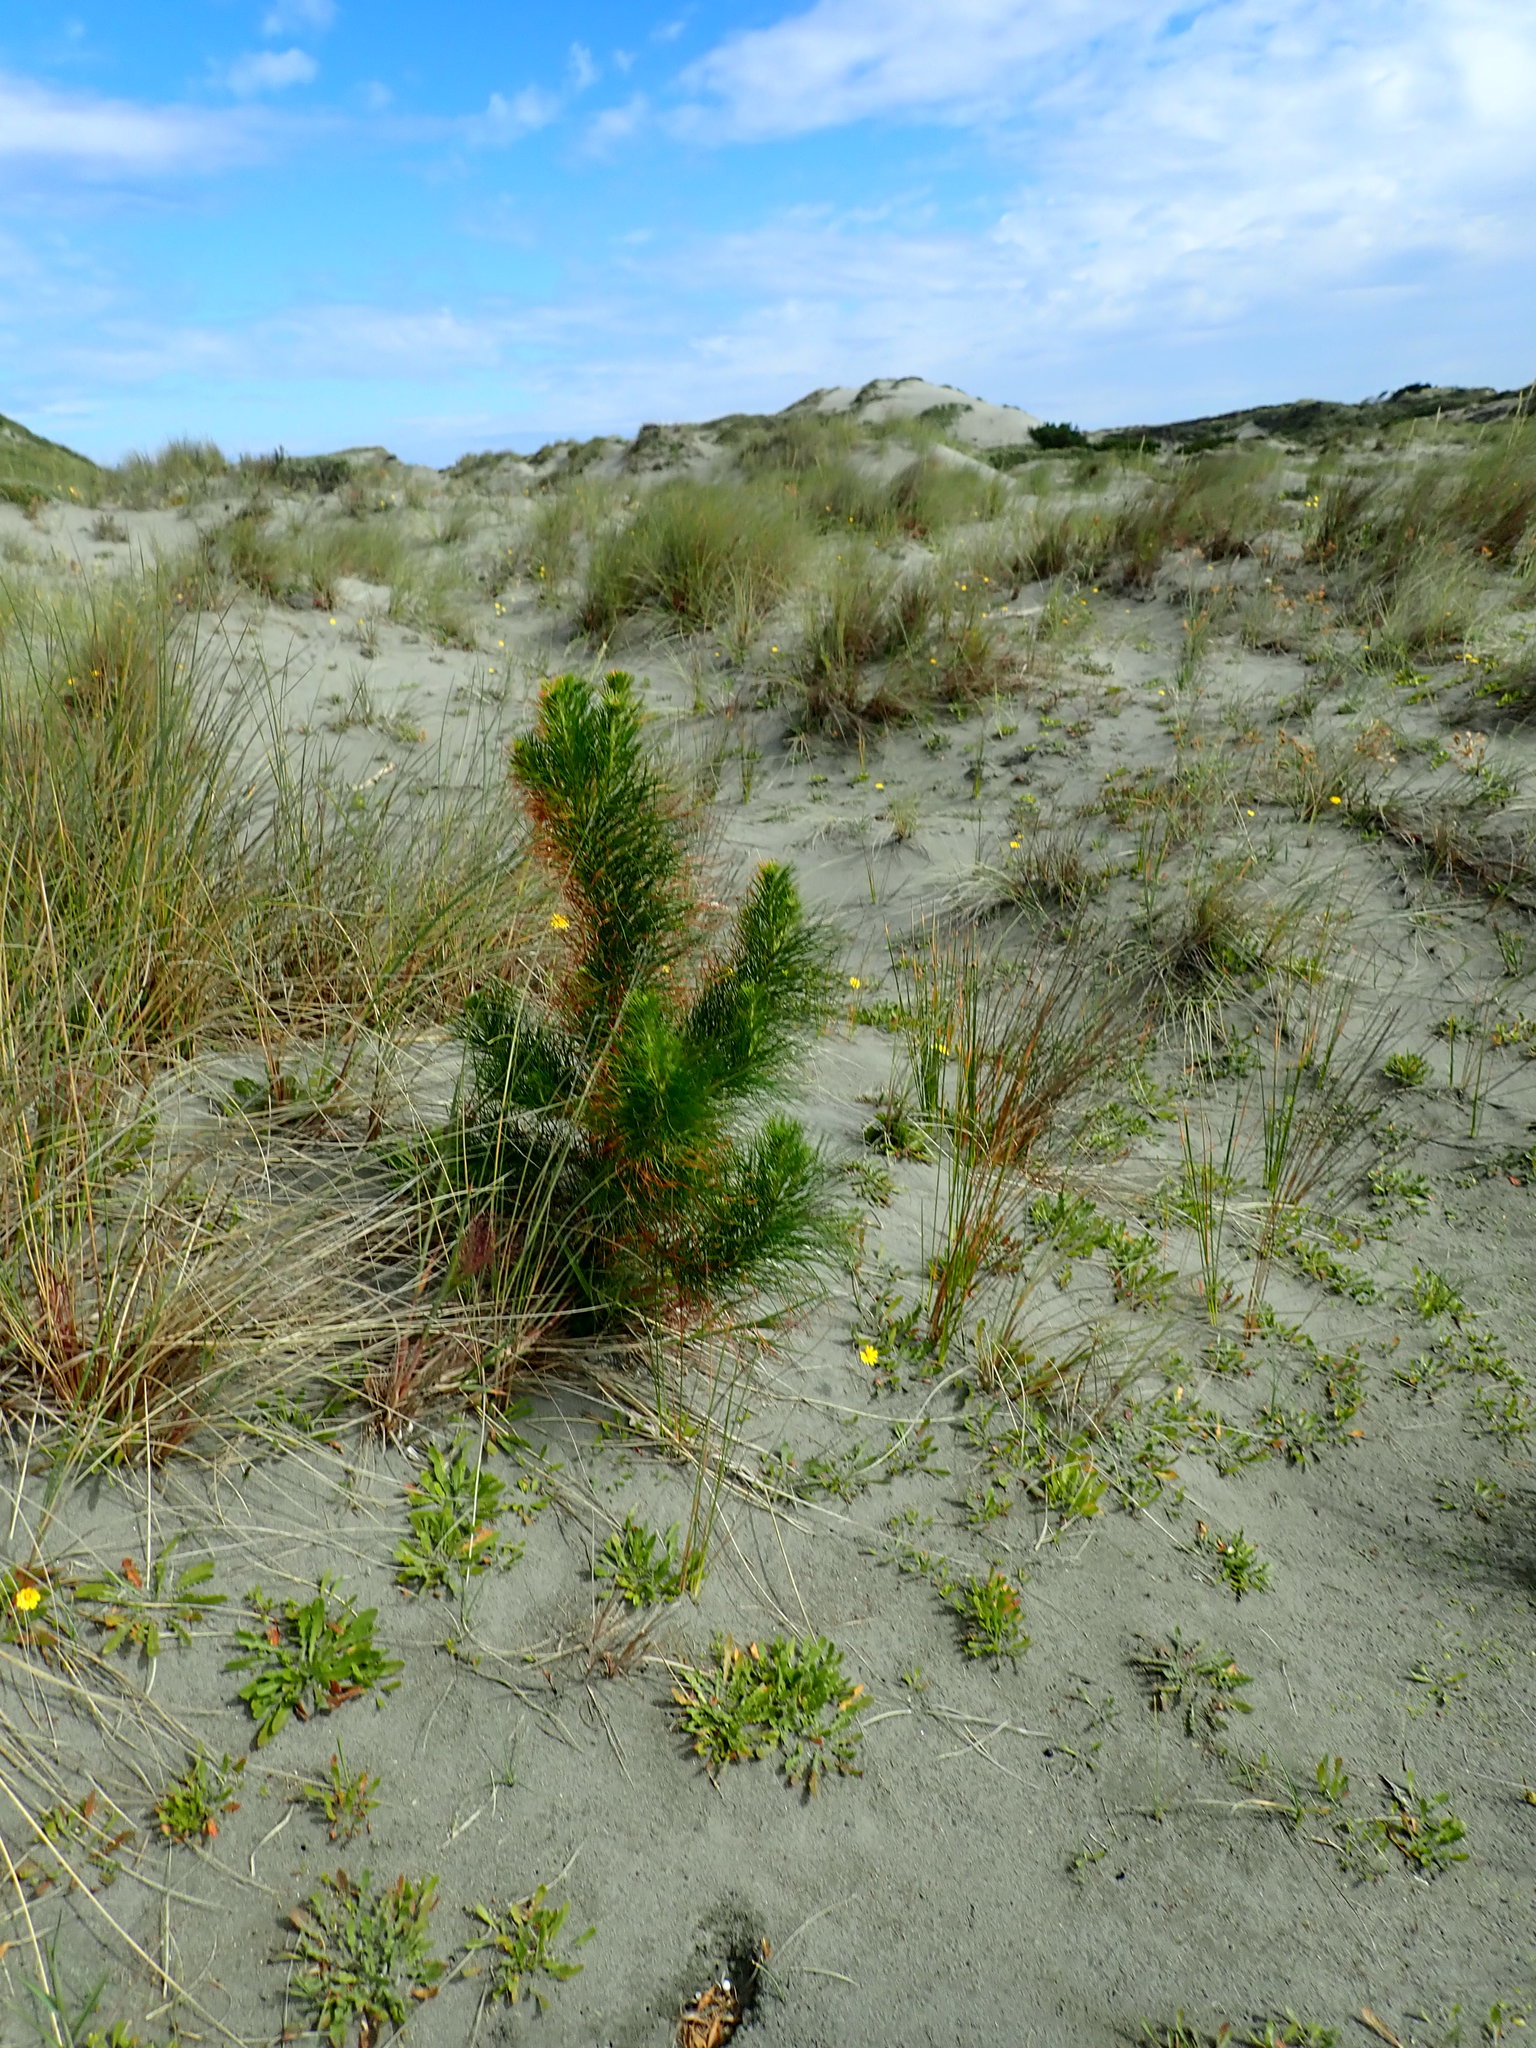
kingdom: Plantae
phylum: Tracheophyta
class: Pinopsida
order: Pinales
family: Pinaceae
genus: Pinus
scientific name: Pinus radiata
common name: Monterey pine
